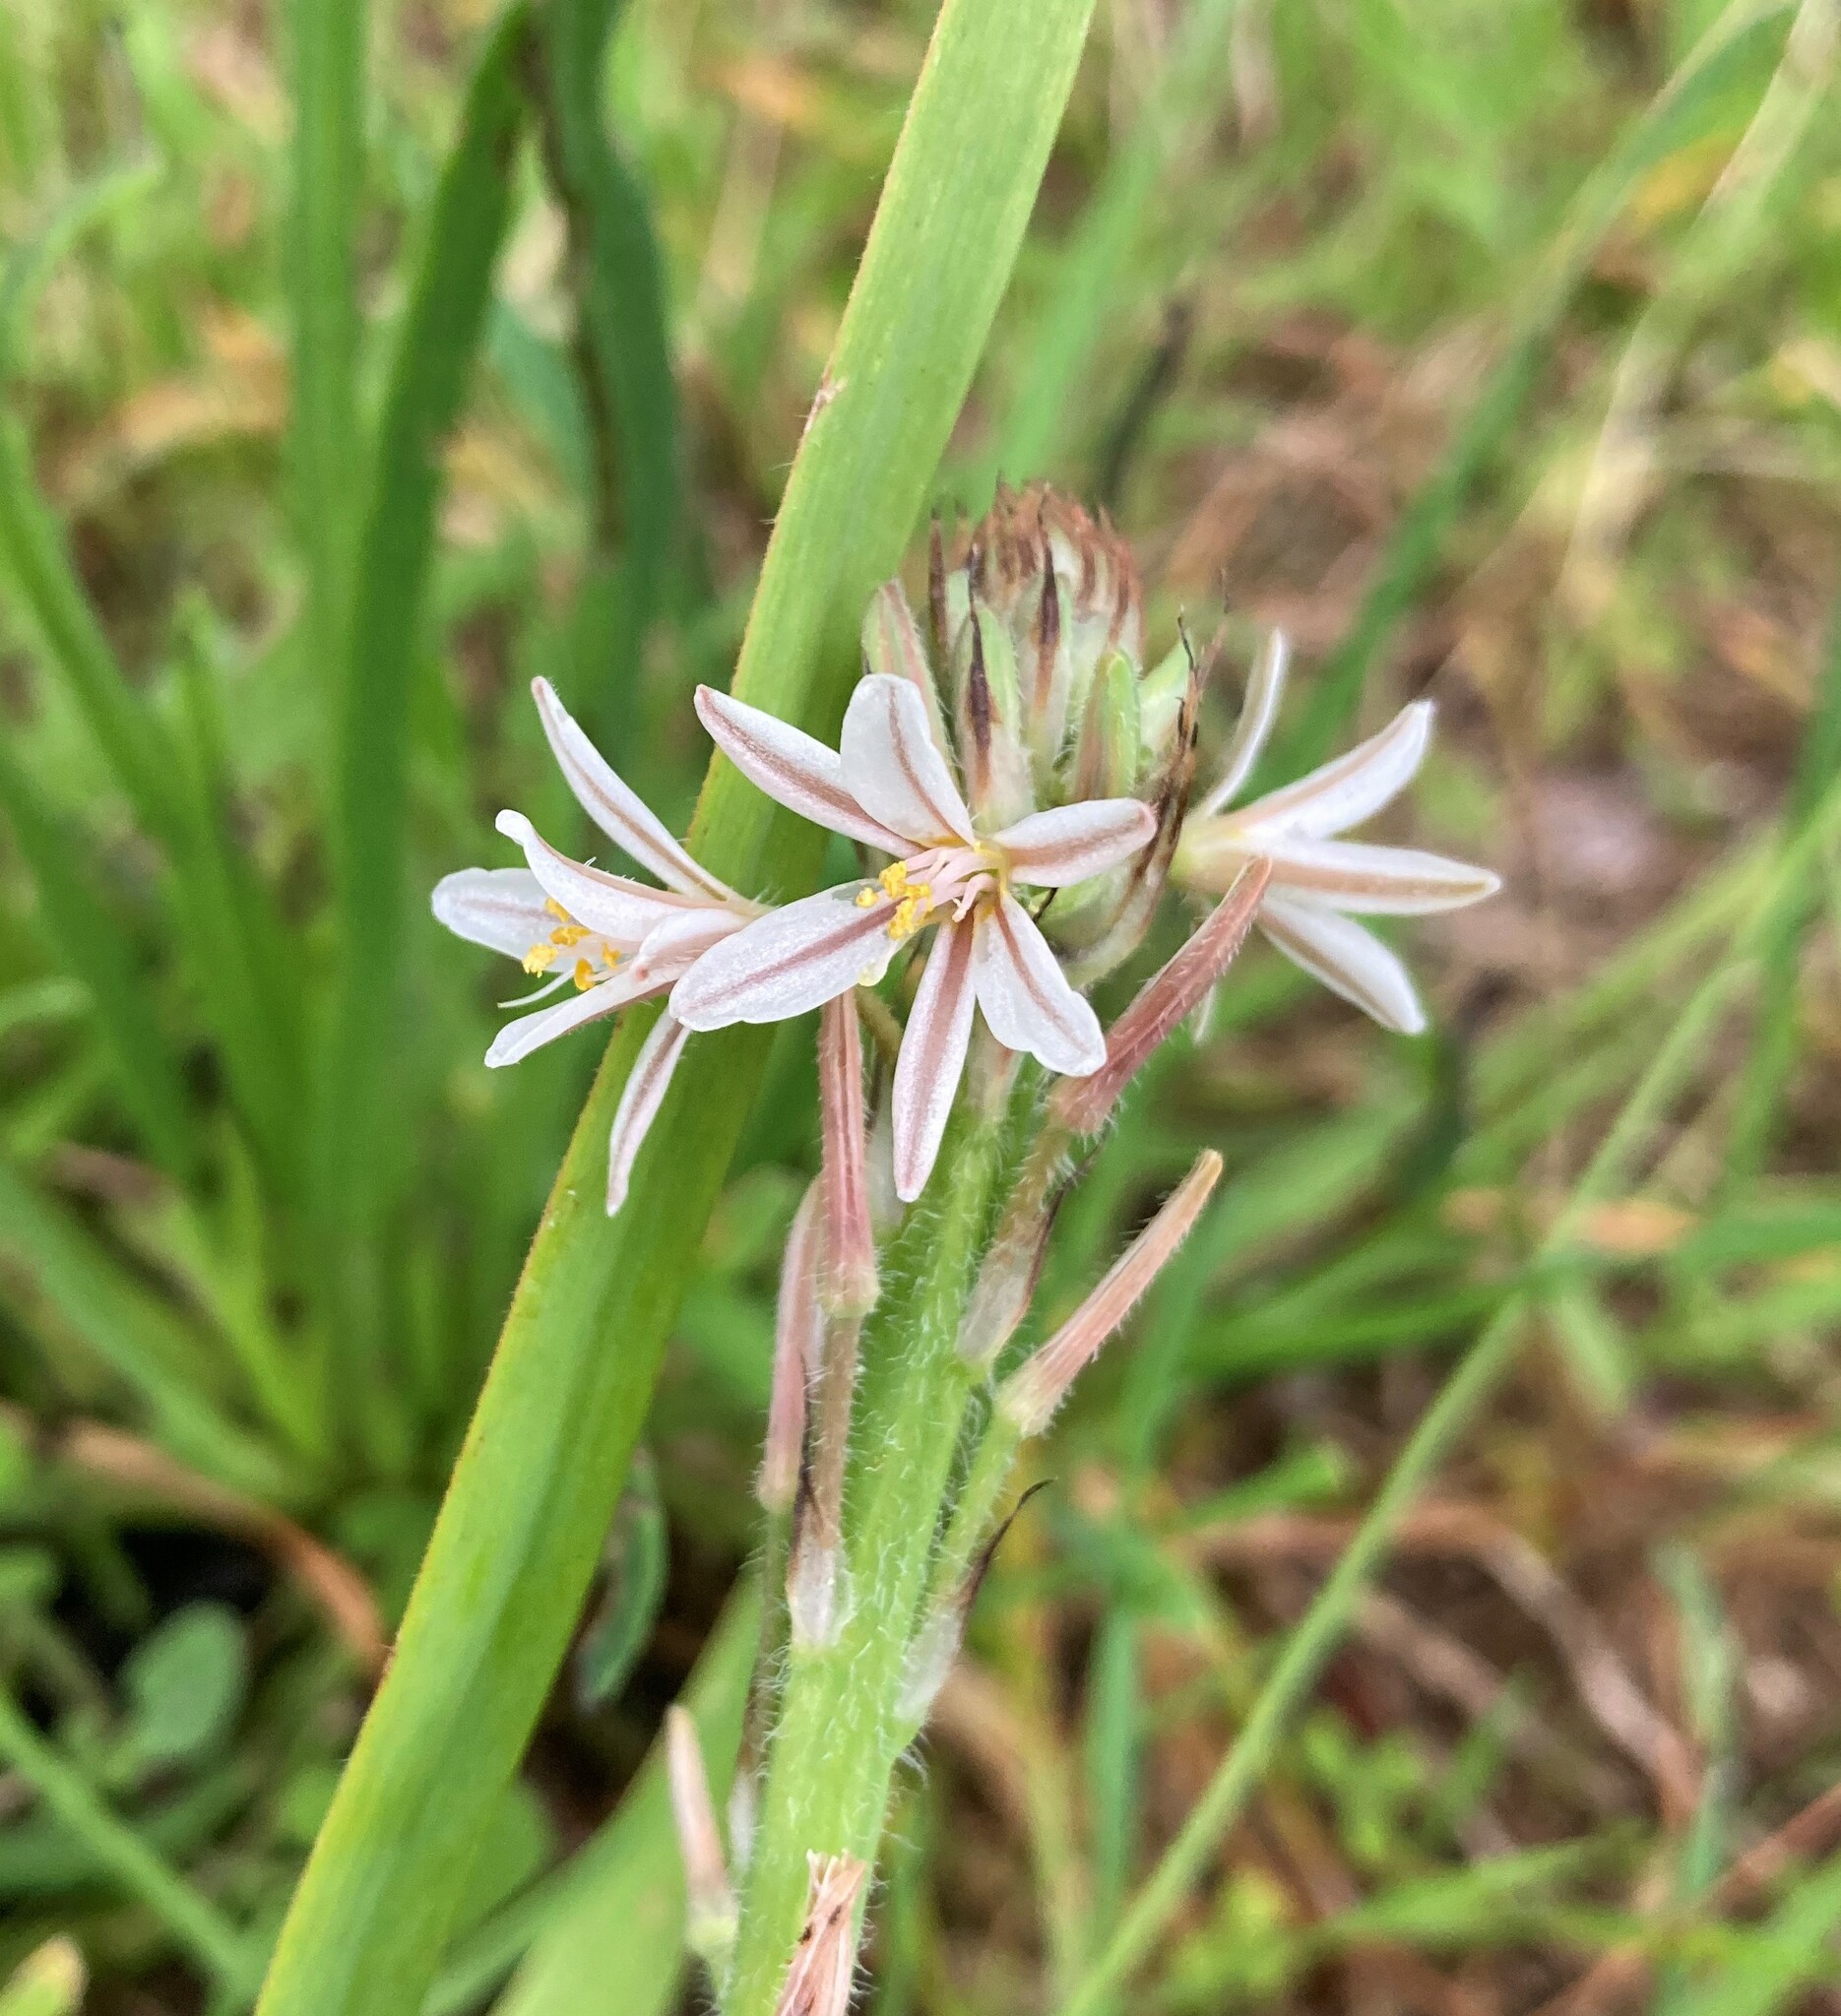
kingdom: Plantae
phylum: Tracheophyta
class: Liliopsida
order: Asparagales
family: Asphodelaceae
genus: Trachyandra
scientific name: Trachyandra ciliata
